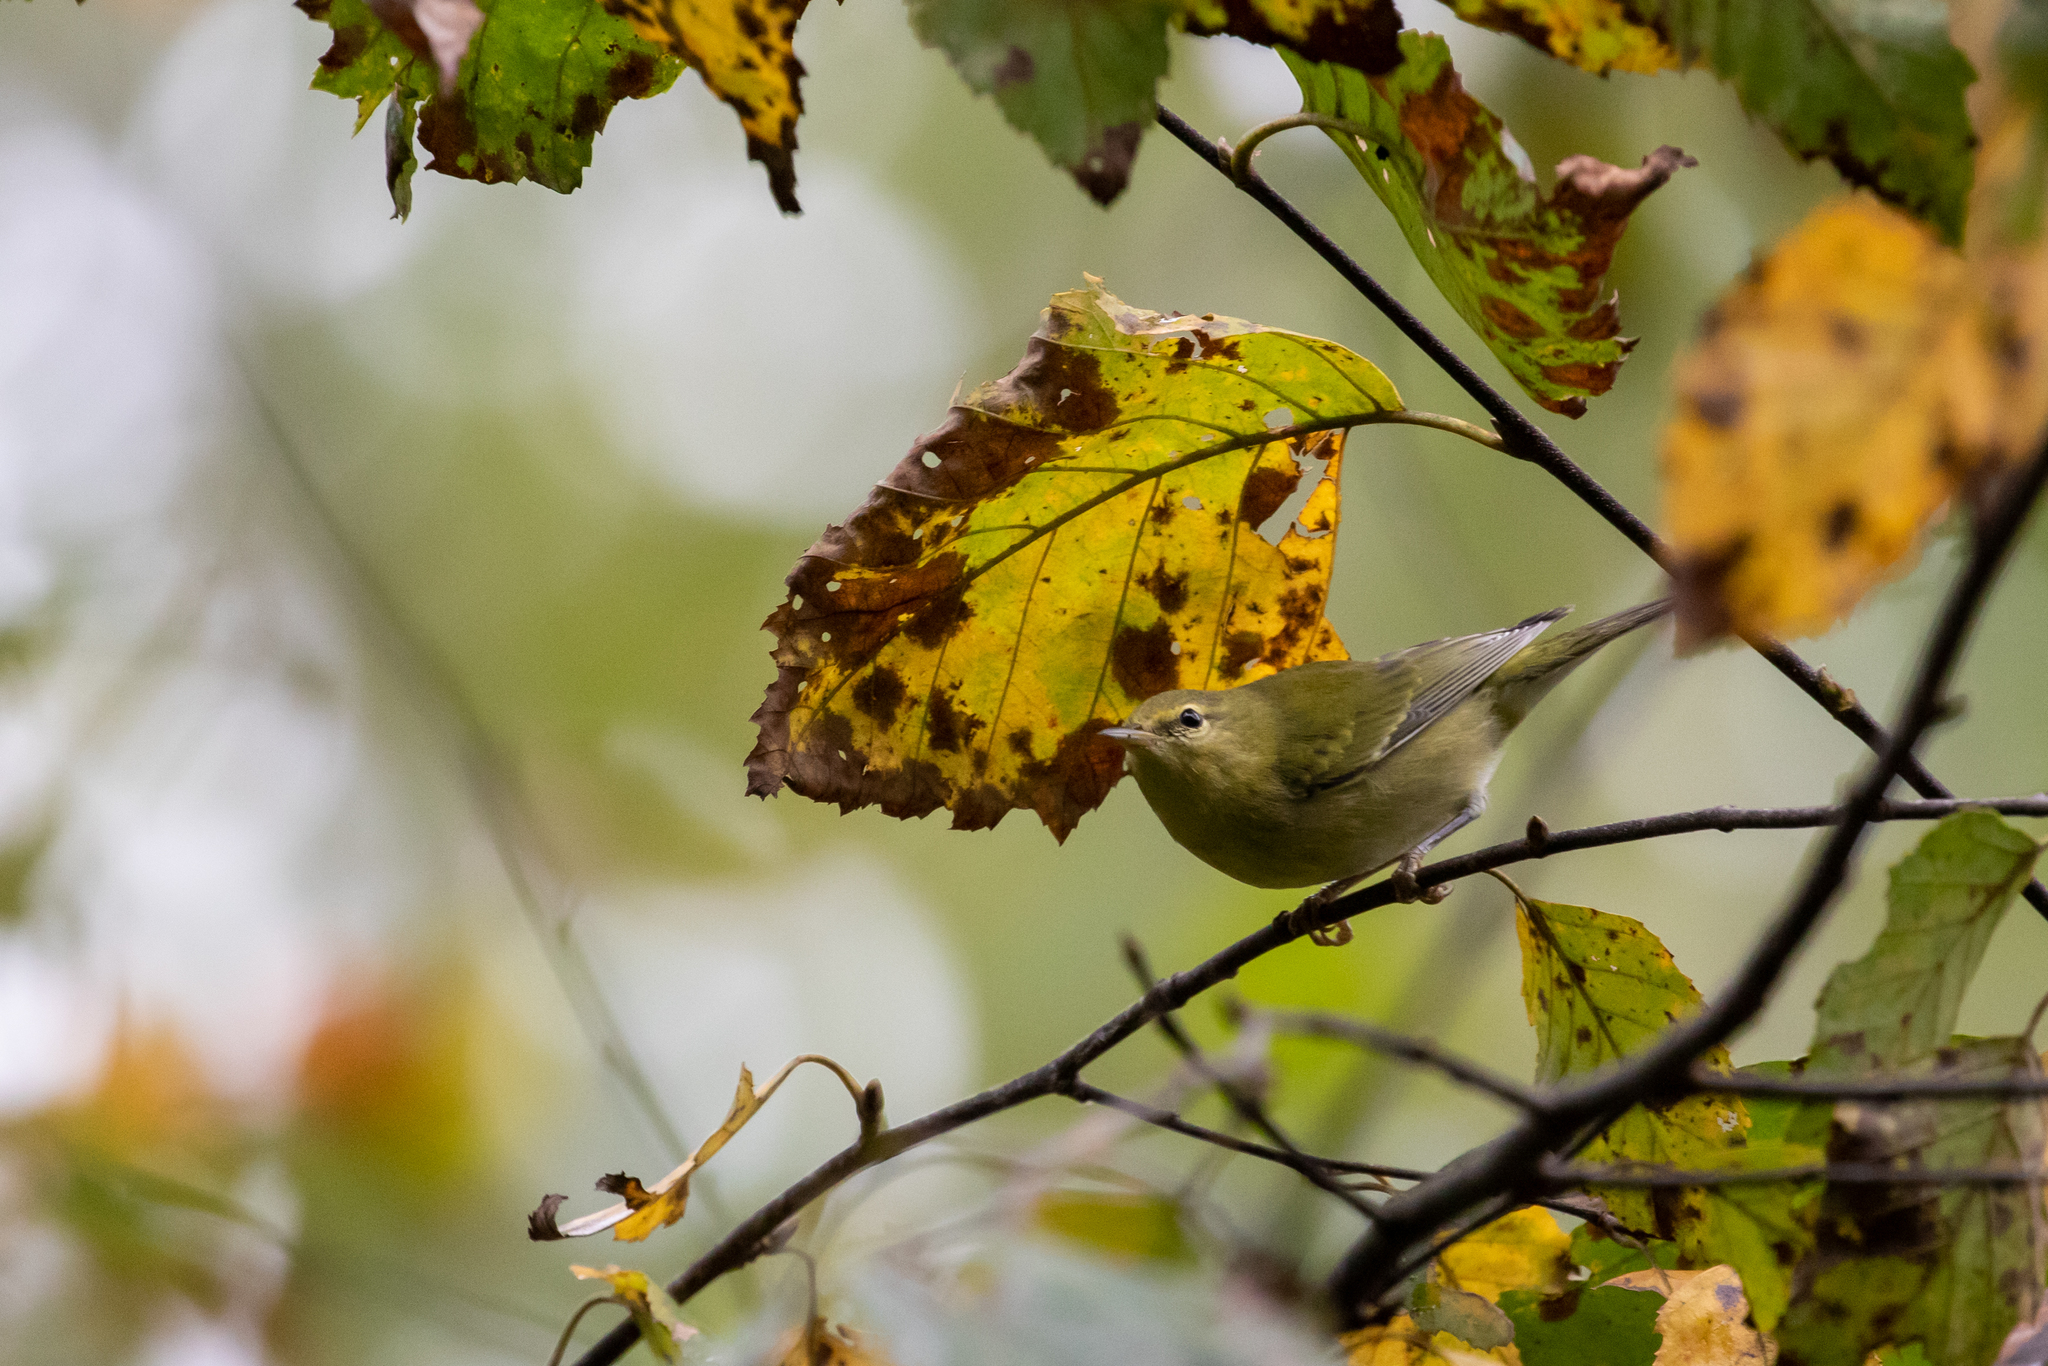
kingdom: Animalia
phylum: Chordata
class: Aves
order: Passeriformes
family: Parulidae
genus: Leiothlypis
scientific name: Leiothlypis peregrina
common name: Tennessee warbler
